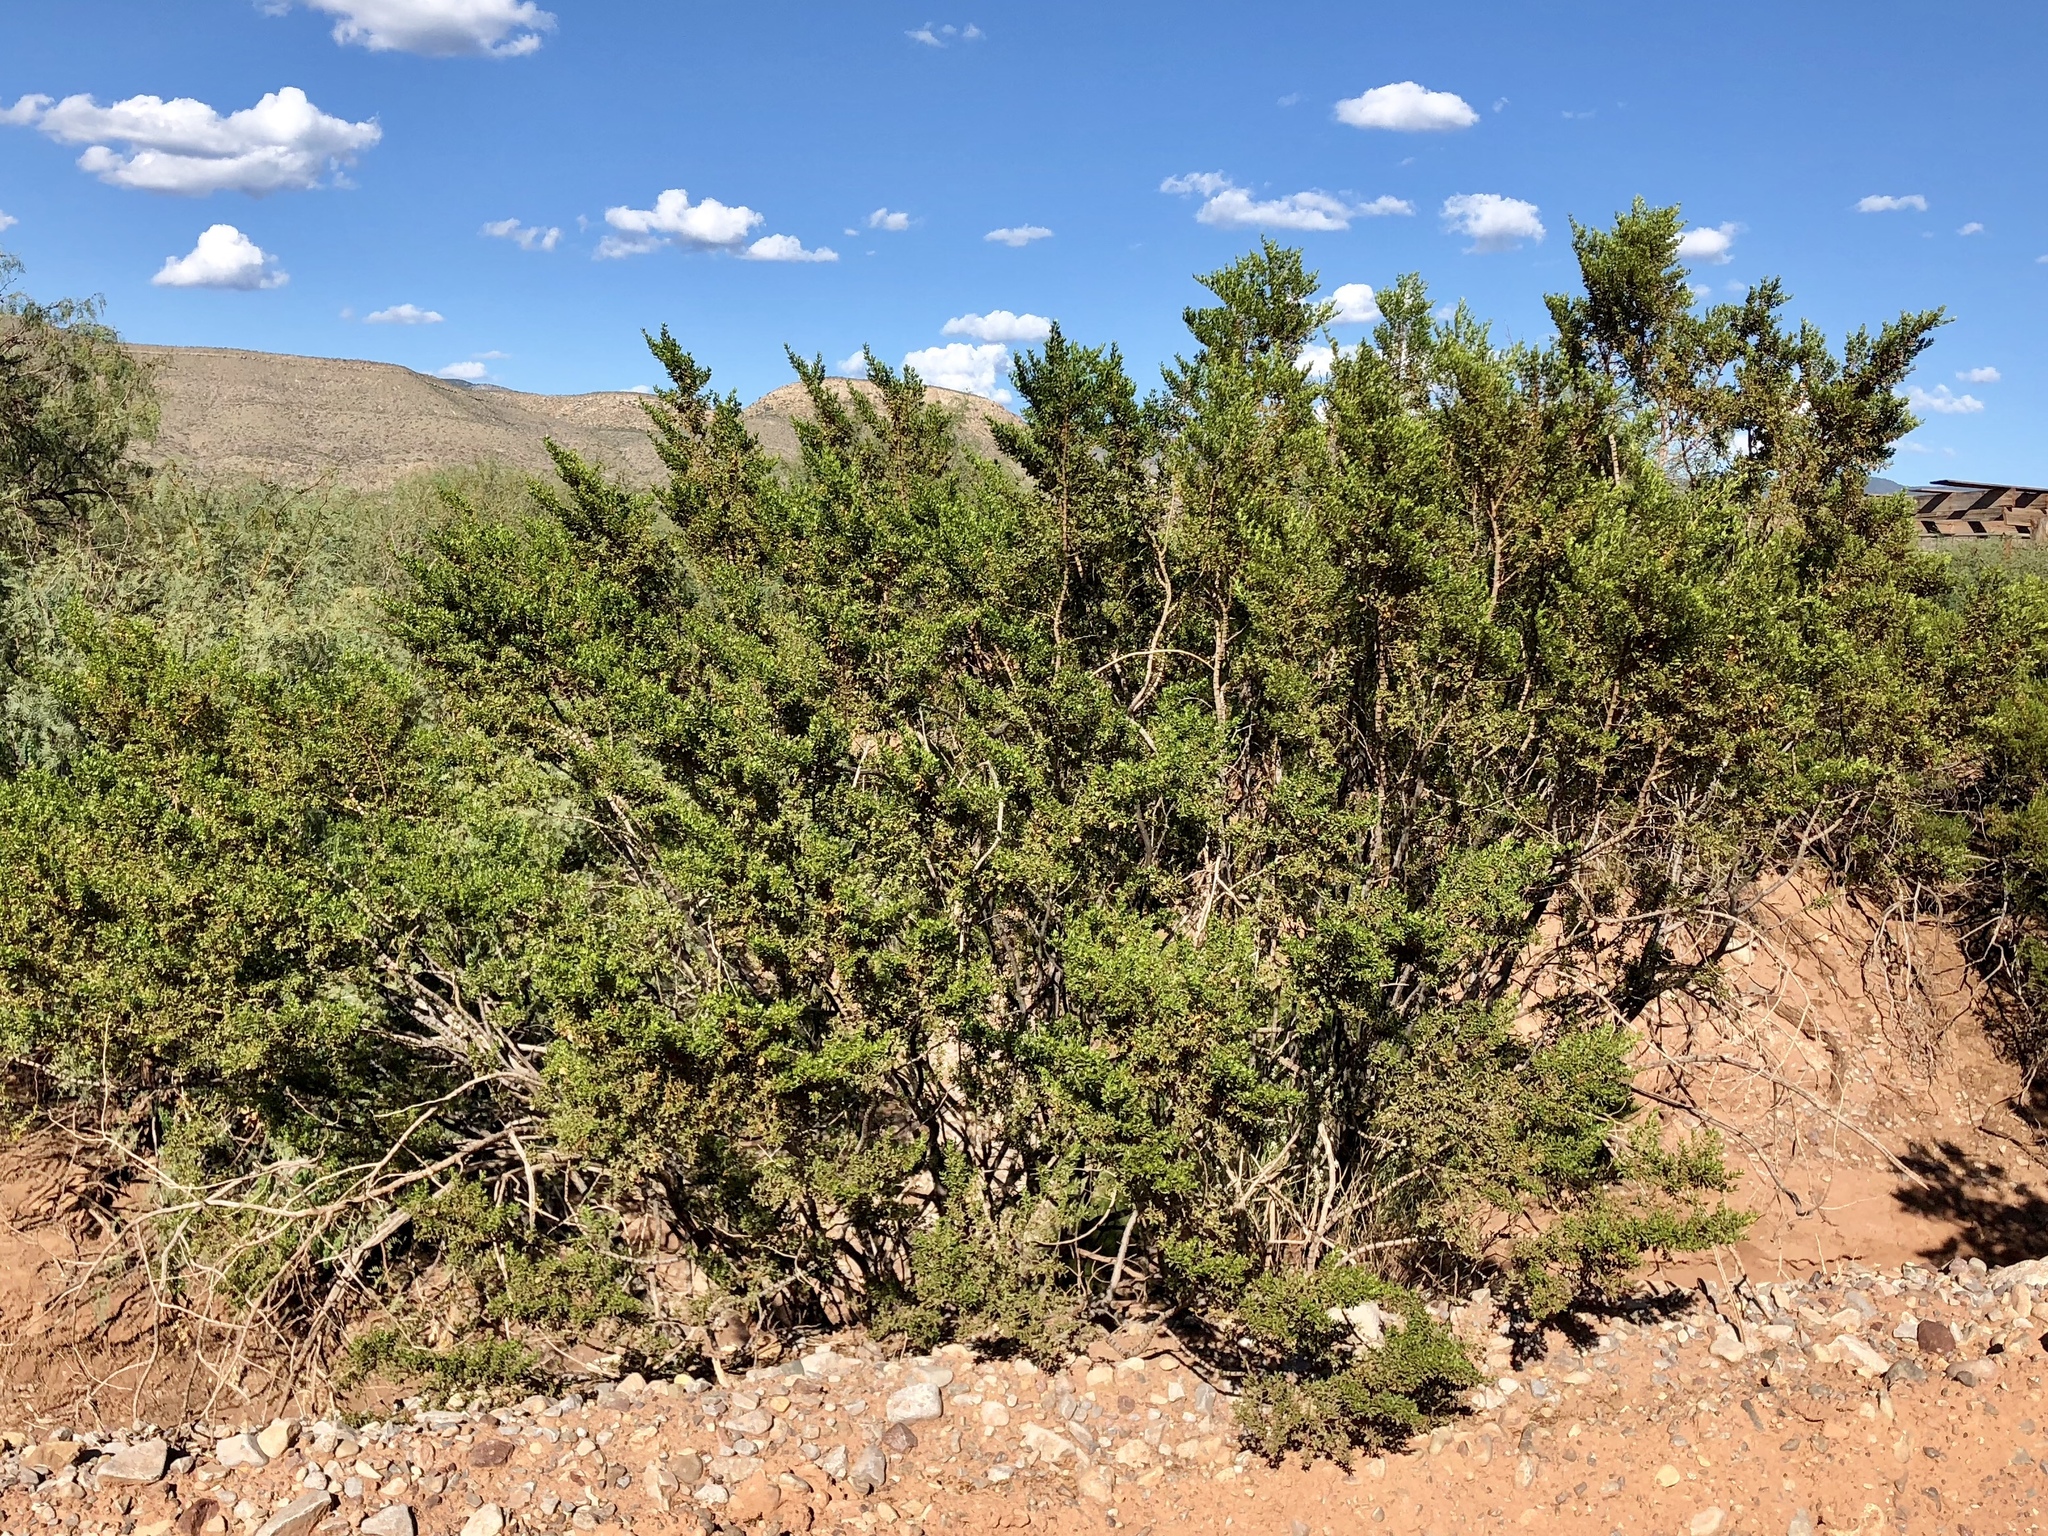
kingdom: Plantae
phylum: Tracheophyta
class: Magnoliopsida
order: Zygophyllales
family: Zygophyllaceae
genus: Larrea
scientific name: Larrea tridentata
